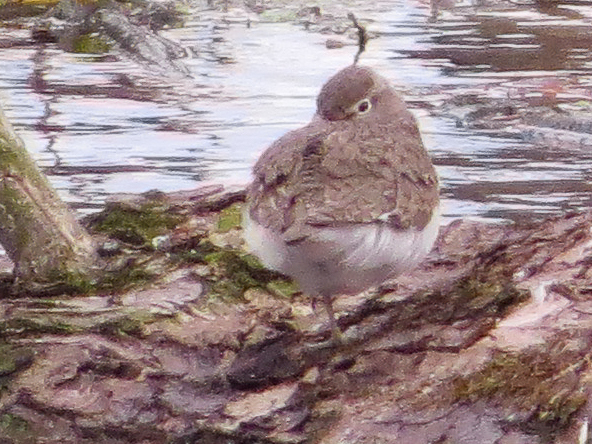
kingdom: Animalia
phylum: Chordata
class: Aves
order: Charadriiformes
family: Scolopacidae
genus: Actitis
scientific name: Actitis hypoleucos
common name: Common sandpiper
